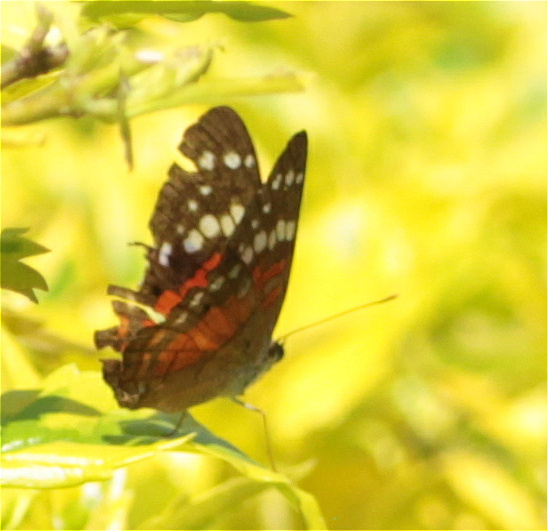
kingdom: Animalia
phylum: Arthropoda
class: Insecta
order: Lepidoptera
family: Nymphalidae
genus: Anartia
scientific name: Anartia amathea
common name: Red peacock
